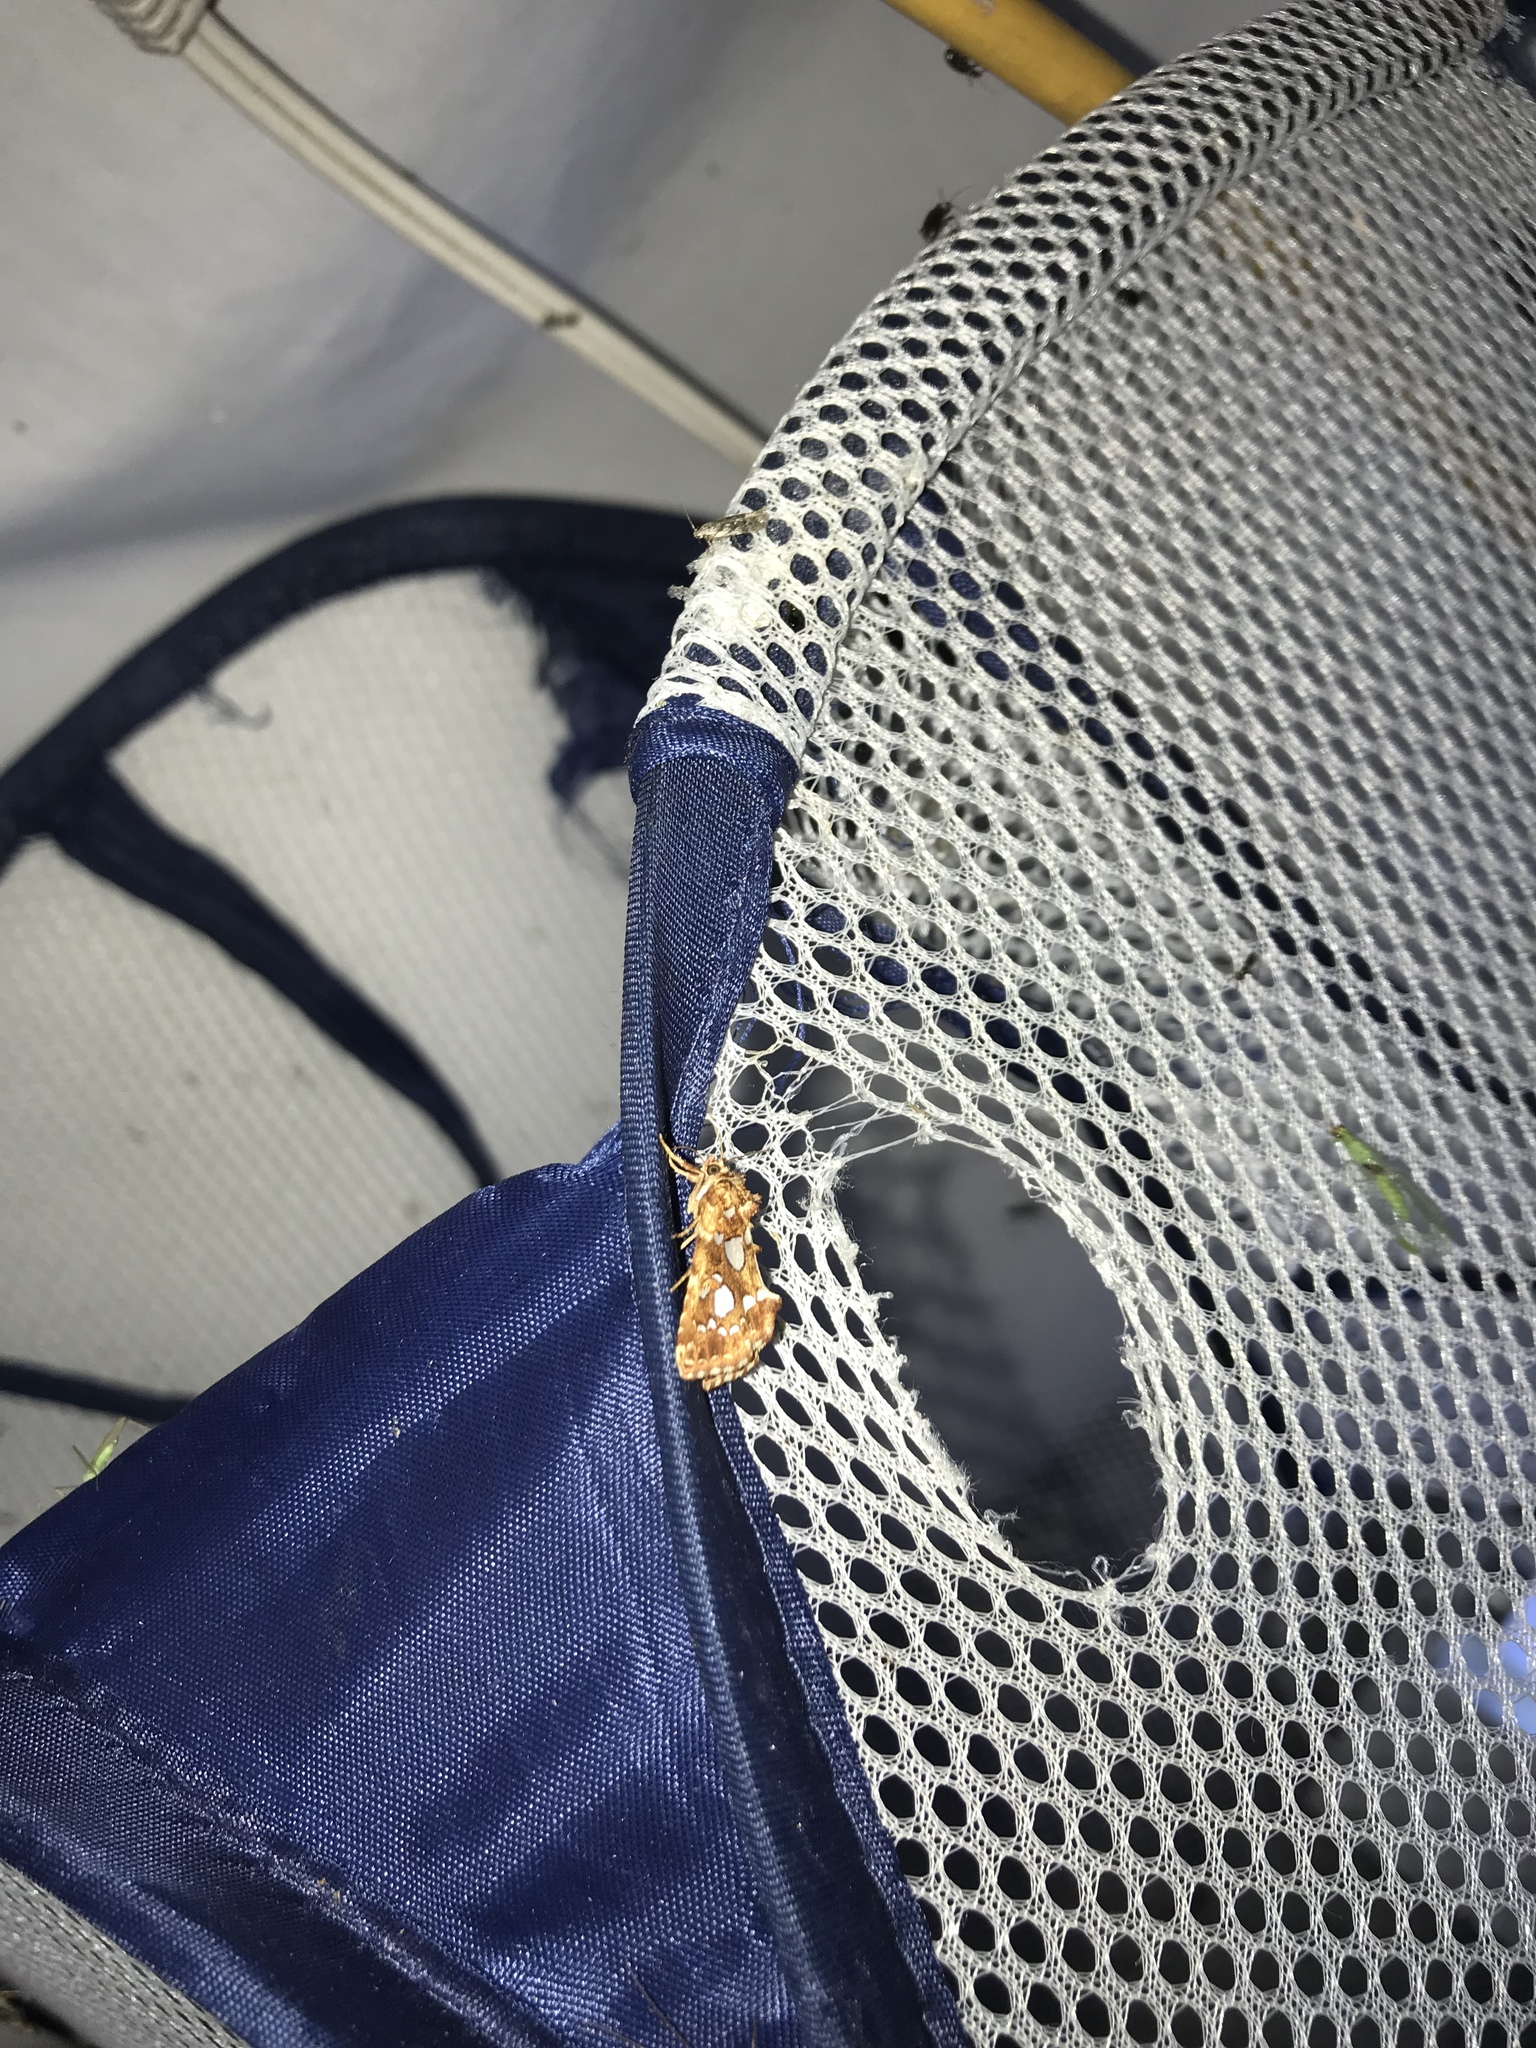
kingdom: Animalia
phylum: Arthropoda
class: Insecta
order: Lepidoptera
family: Noctuidae
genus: Callopistria
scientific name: Callopistria cordata
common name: Silver-spotted fern moth
